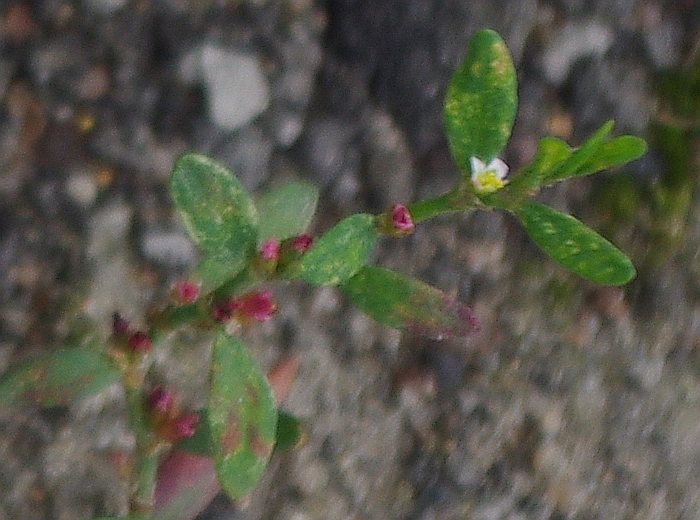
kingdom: Plantae
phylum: Tracheophyta
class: Magnoliopsida
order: Caryophyllales
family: Polygonaceae
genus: Polygonum
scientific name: Polygonum
